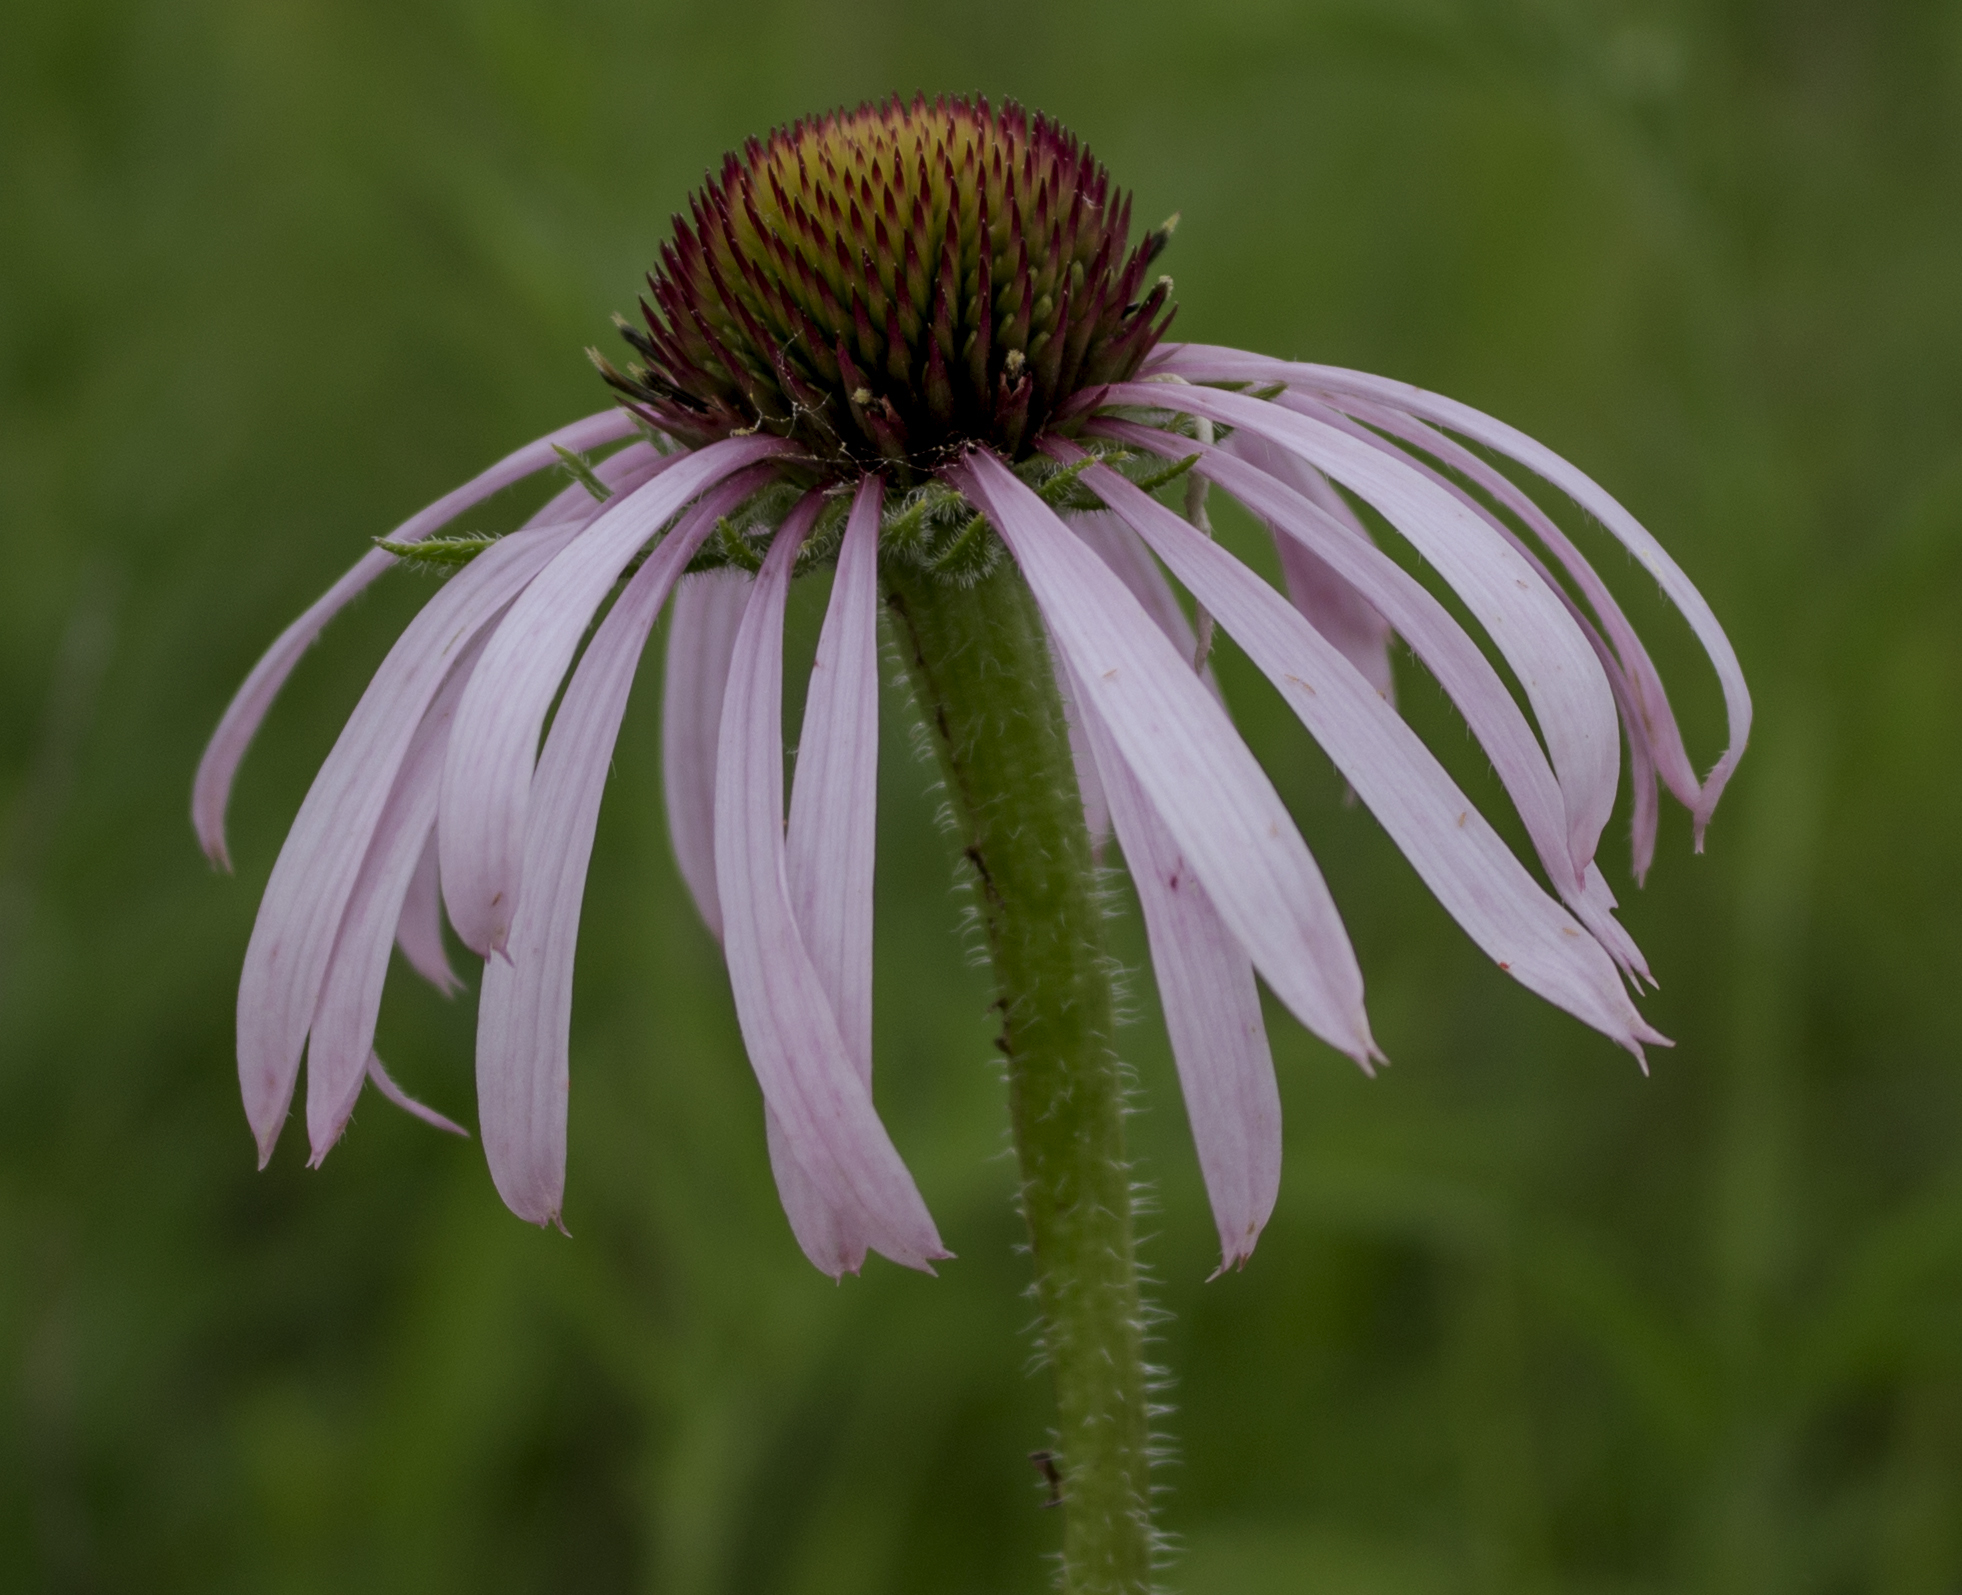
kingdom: Plantae
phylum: Tracheophyta
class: Magnoliopsida
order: Asterales
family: Asteraceae
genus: Echinacea
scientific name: Echinacea pallida
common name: Pale echinacea
